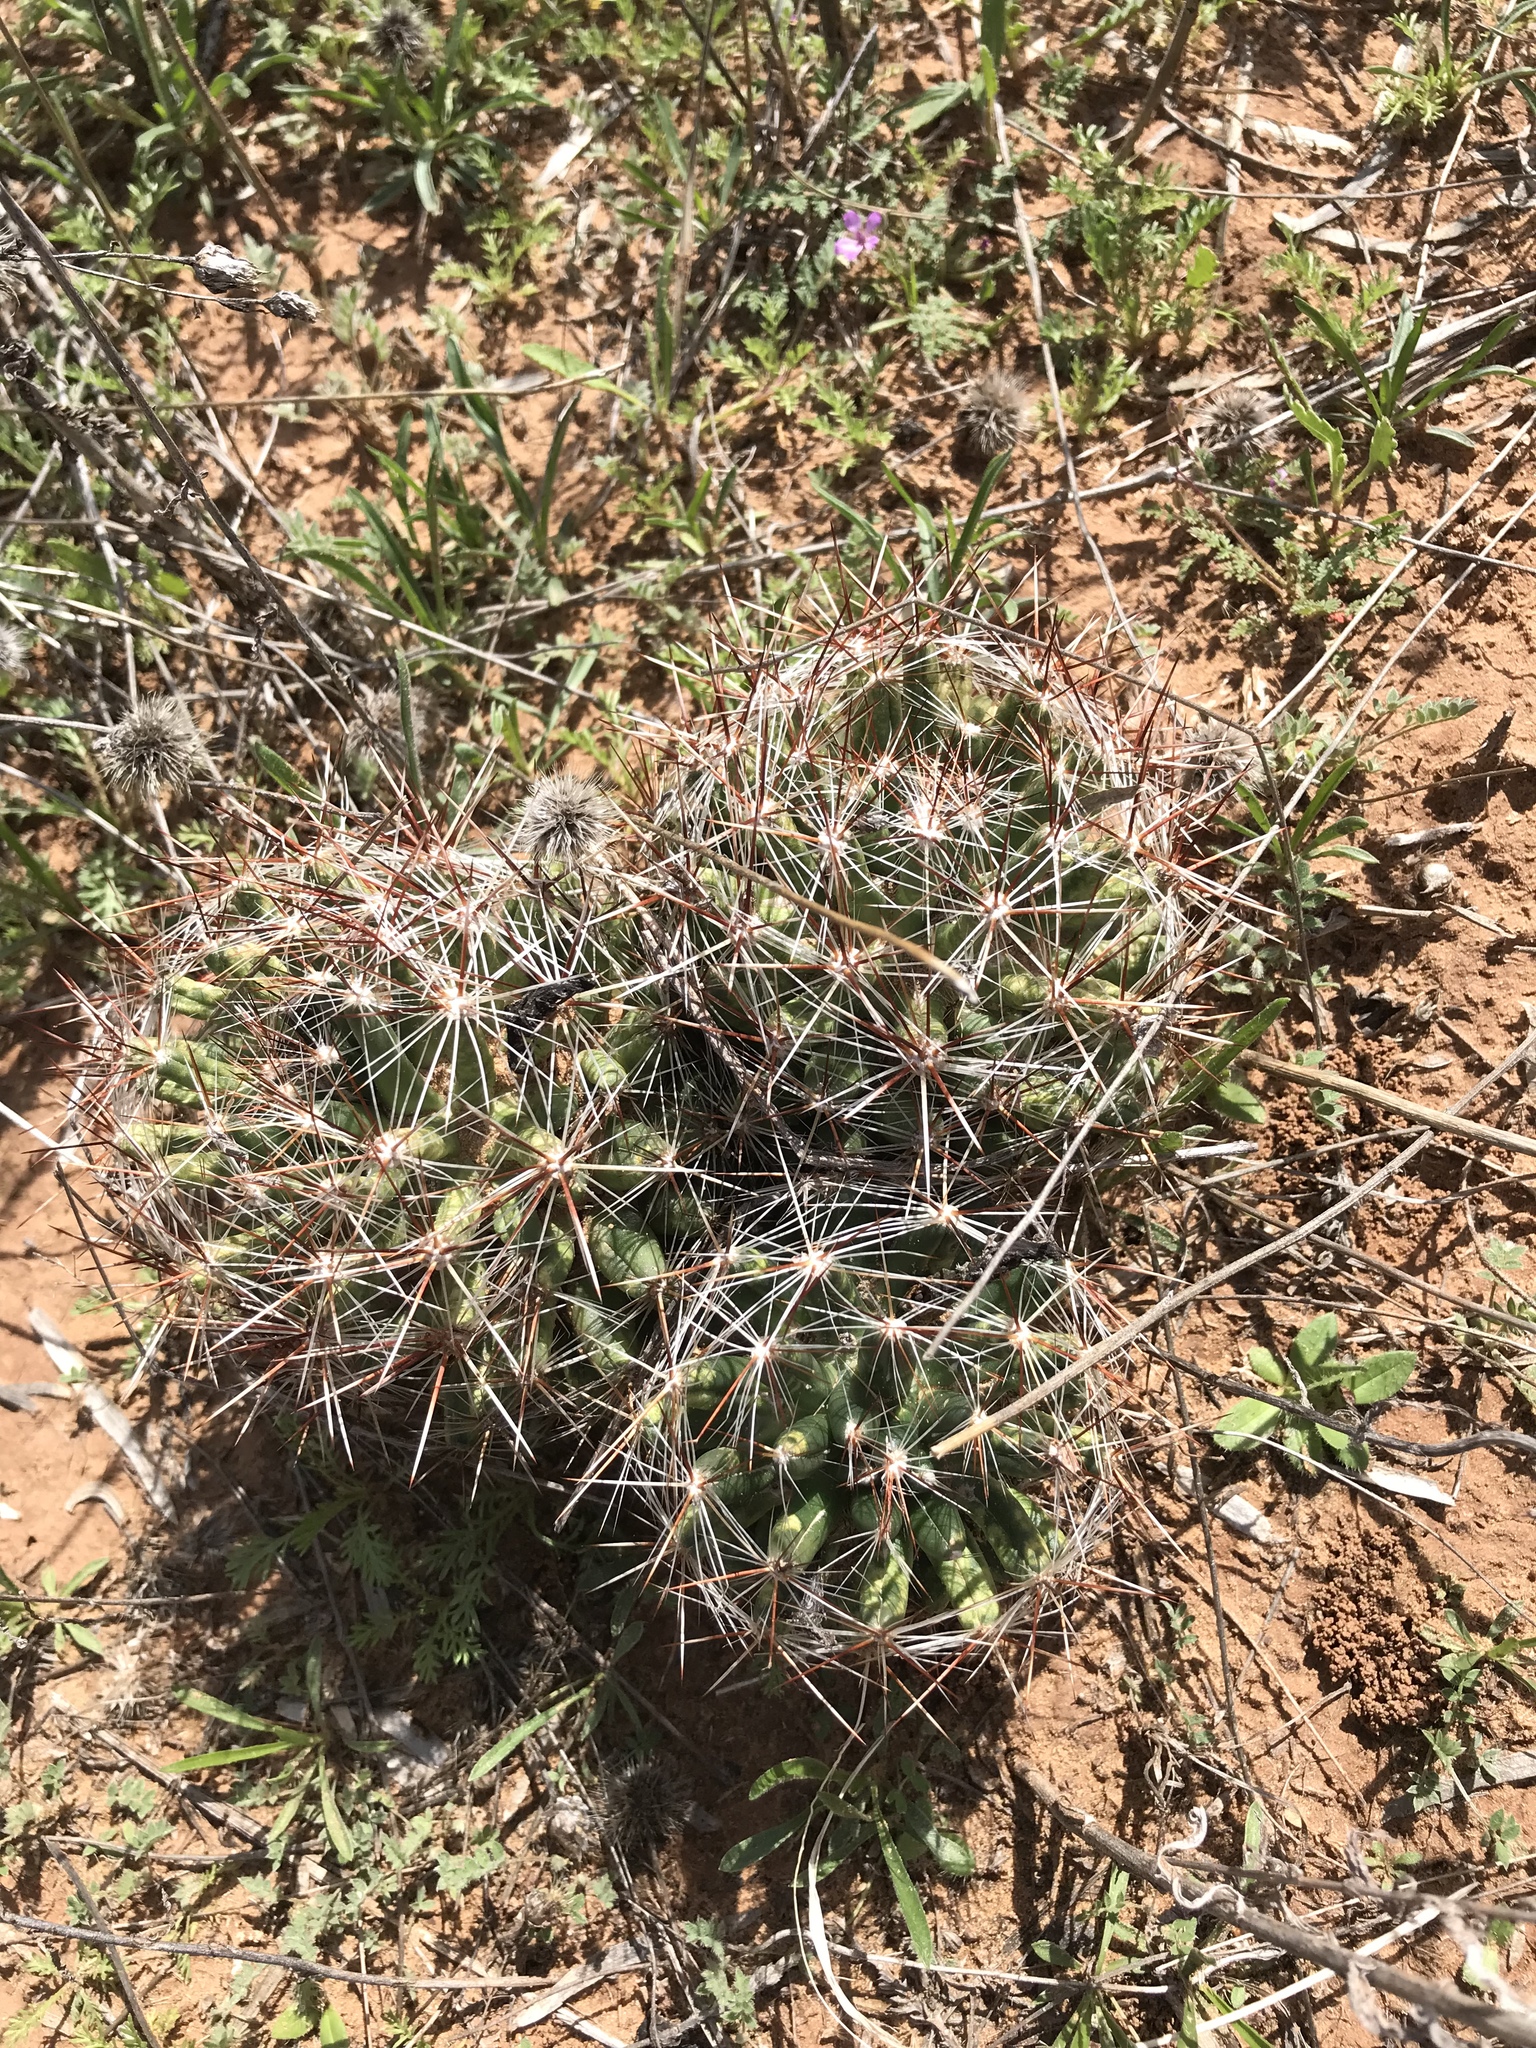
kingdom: Plantae
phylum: Tracheophyta
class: Magnoliopsida
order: Caryophyllales
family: Cactaceae
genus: Pelecyphora
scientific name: Pelecyphora vivipara
